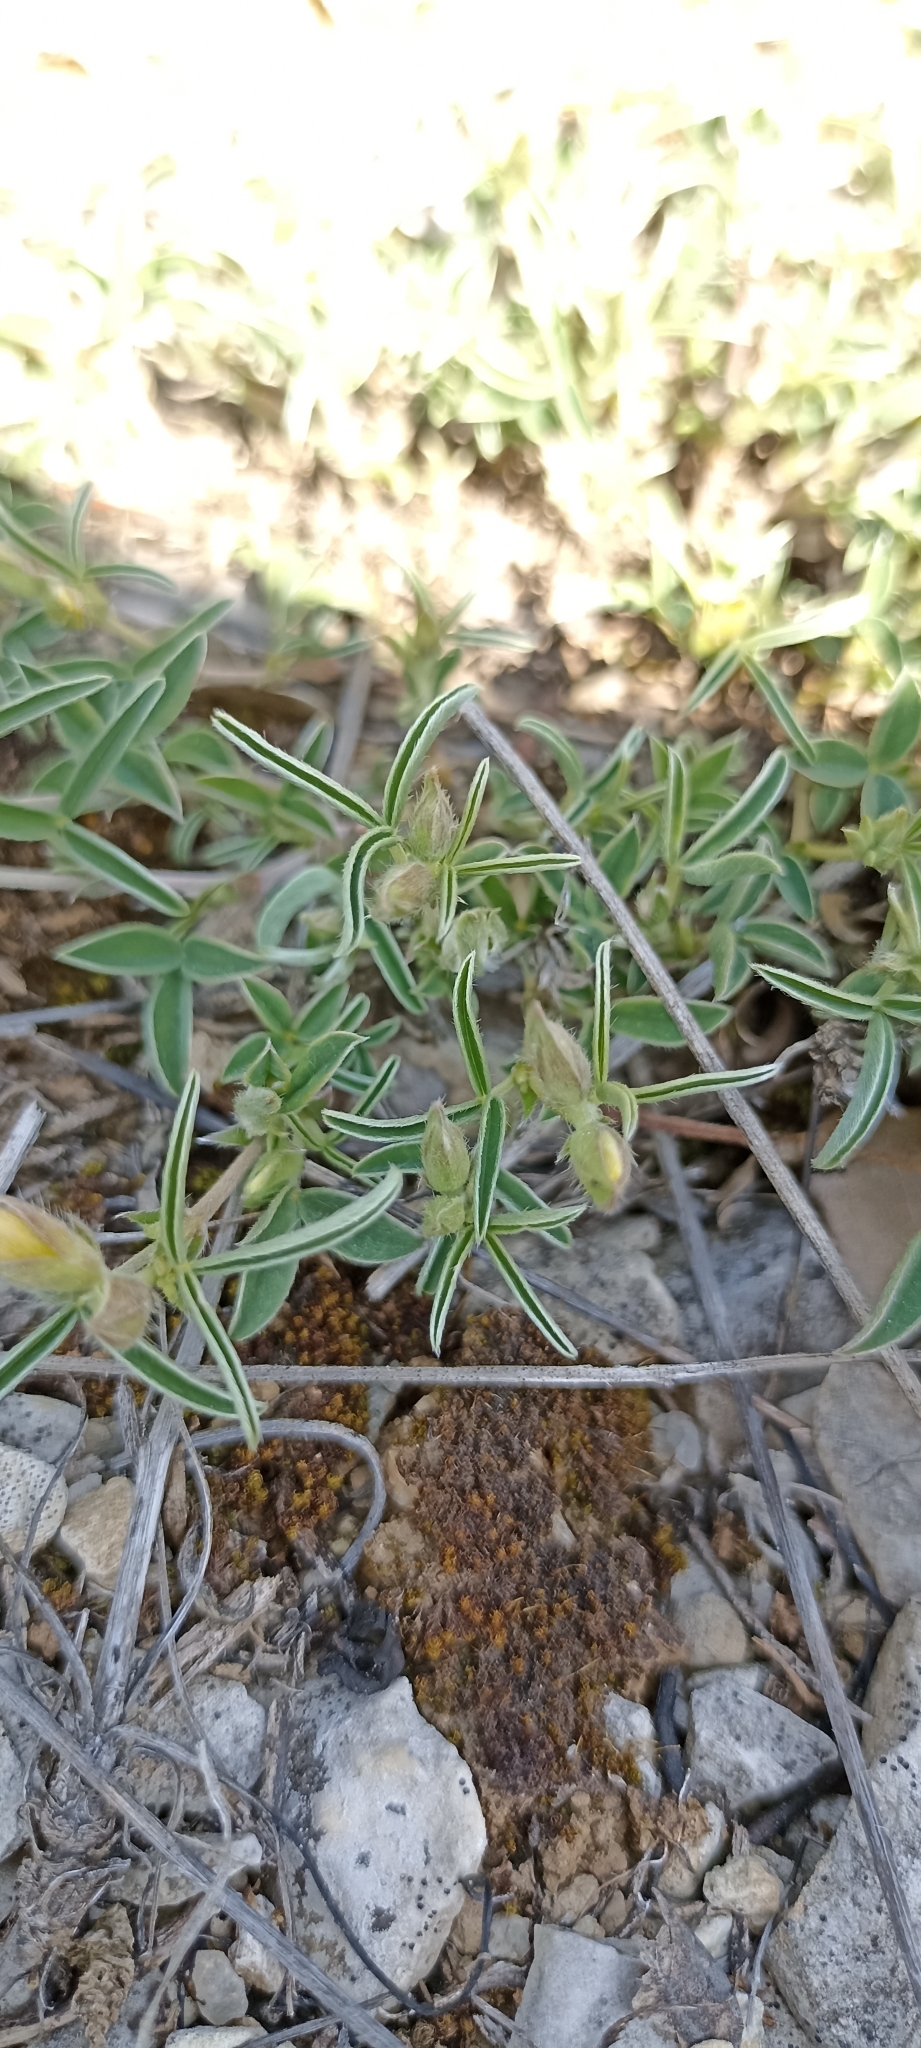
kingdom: Plantae
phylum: Tracheophyta
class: Magnoliopsida
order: Fabales
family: Fabaceae
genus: Argyrolobium
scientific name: Argyrolobium zanonii
